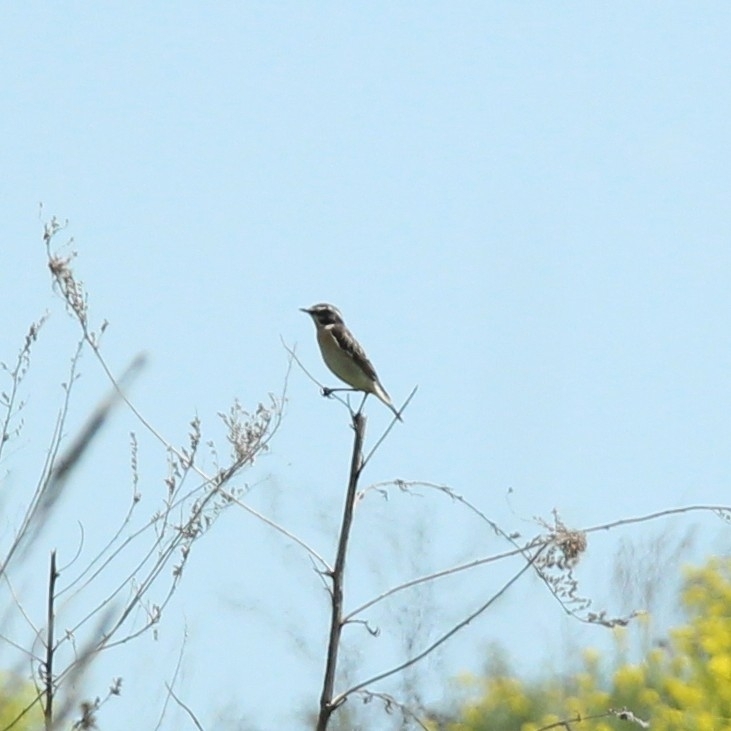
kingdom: Animalia
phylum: Chordata
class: Aves
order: Passeriformes
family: Muscicapidae
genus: Saxicola
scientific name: Saxicola rubetra
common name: Whinchat
